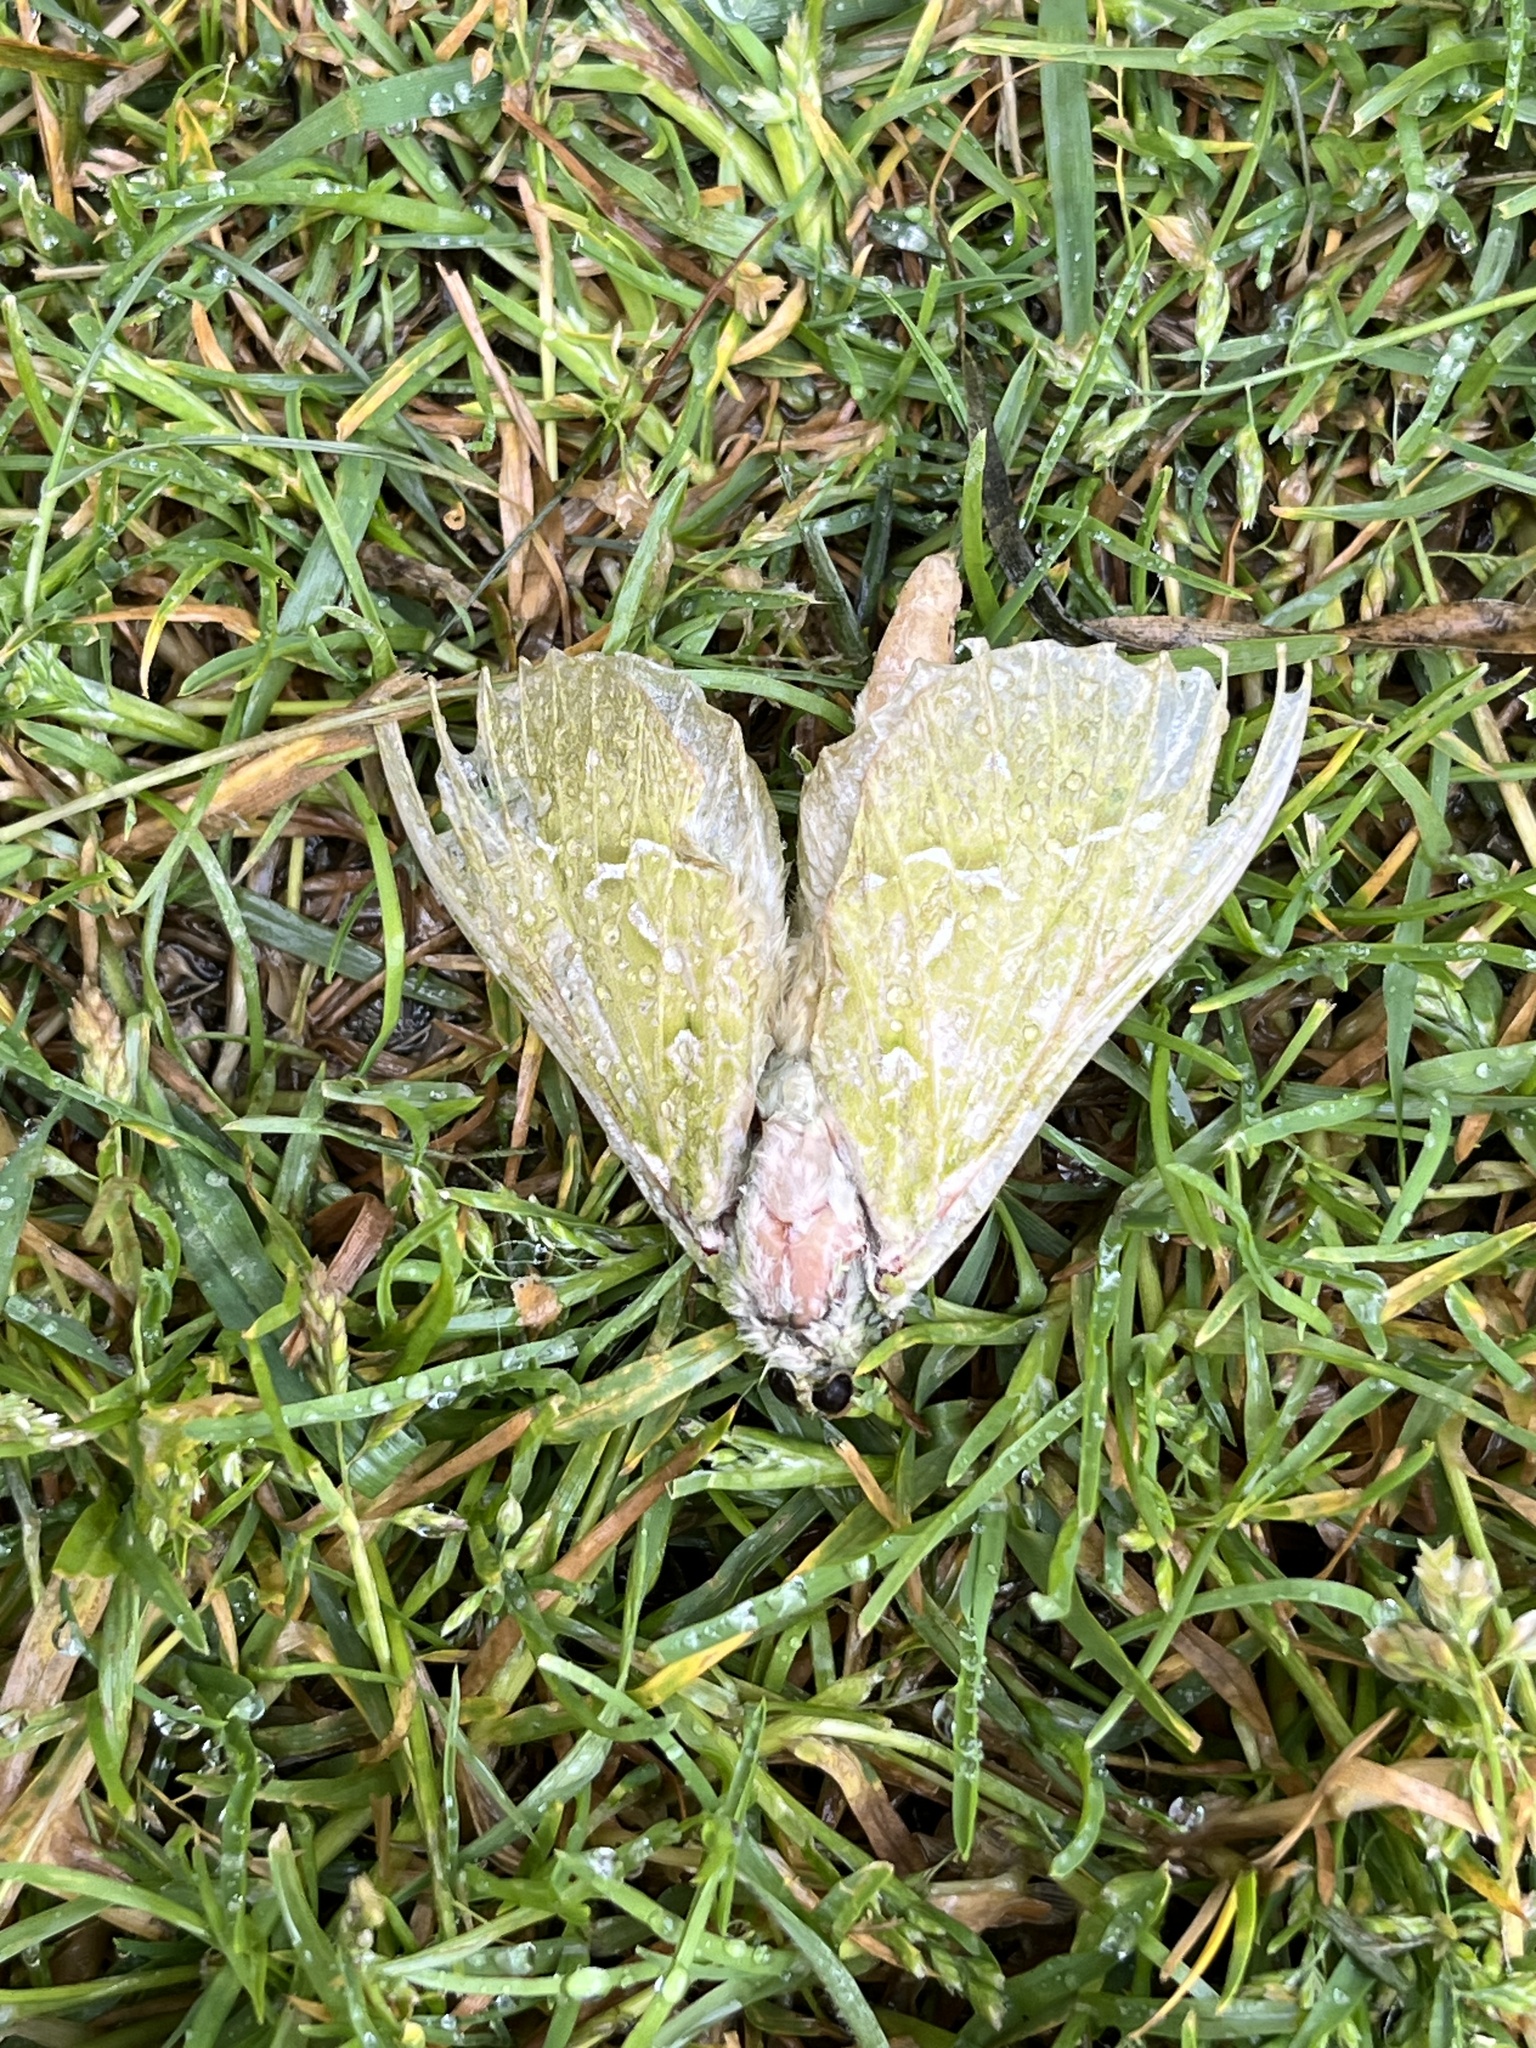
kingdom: Animalia
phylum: Arthropoda
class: Insecta
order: Lepidoptera
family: Hepialidae
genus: Aenetus
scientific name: Aenetus virescens
